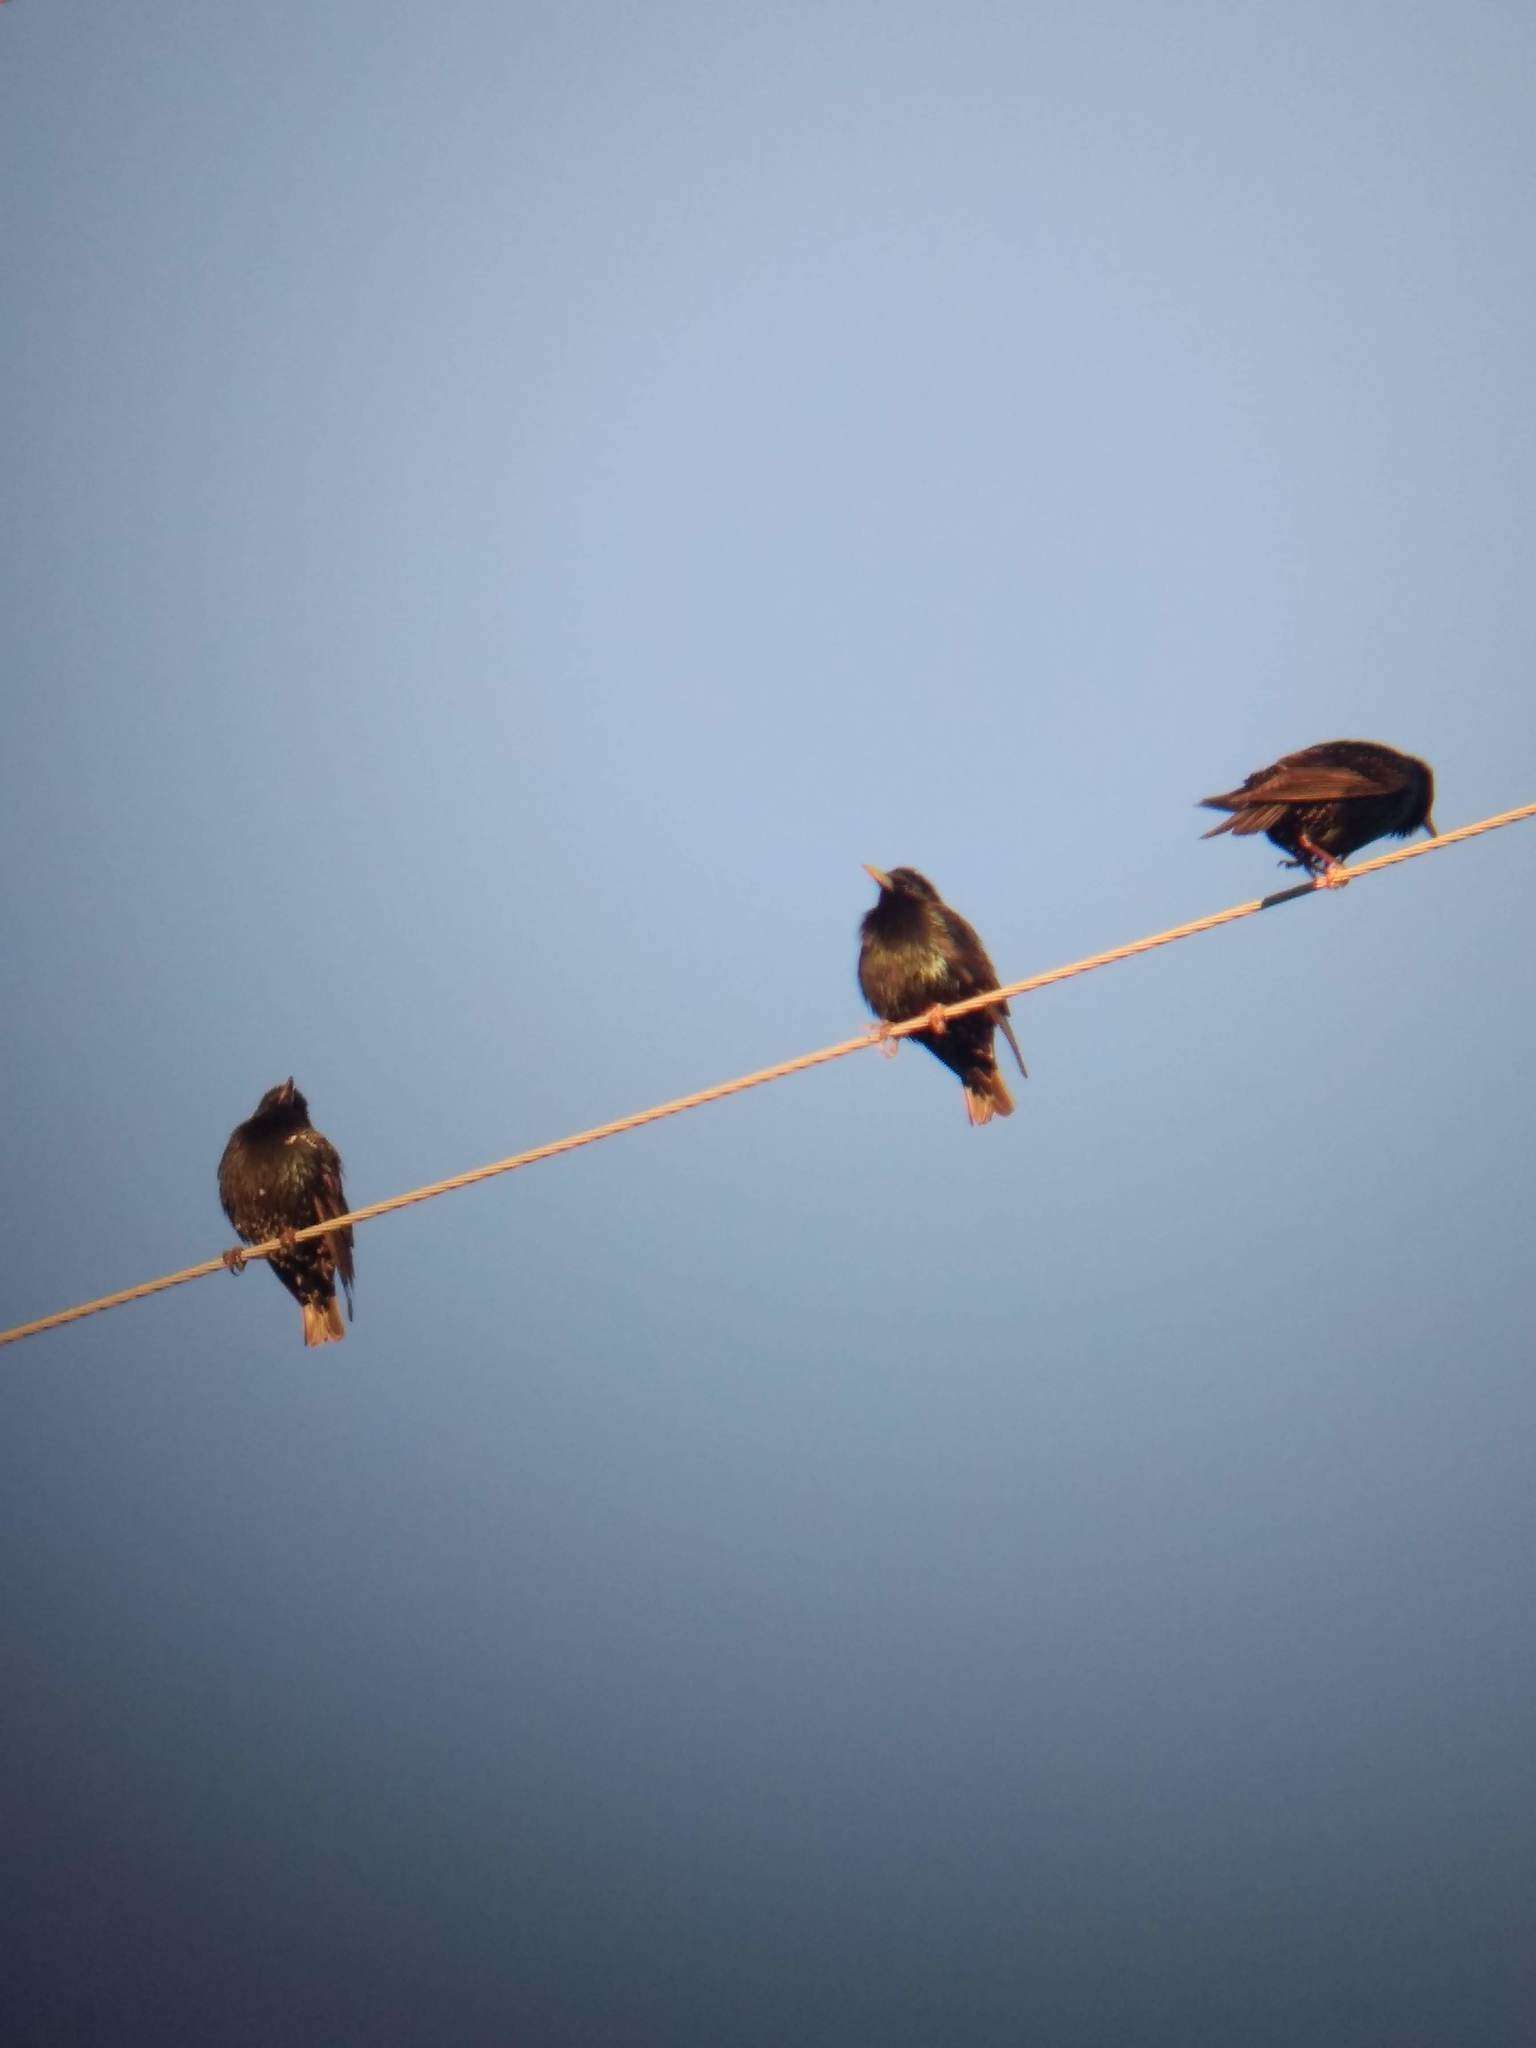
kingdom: Animalia
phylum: Chordata
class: Aves
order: Passeriformes
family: Sturnidae
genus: Sturnus
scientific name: Sturnus vulgaris
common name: Common starling
